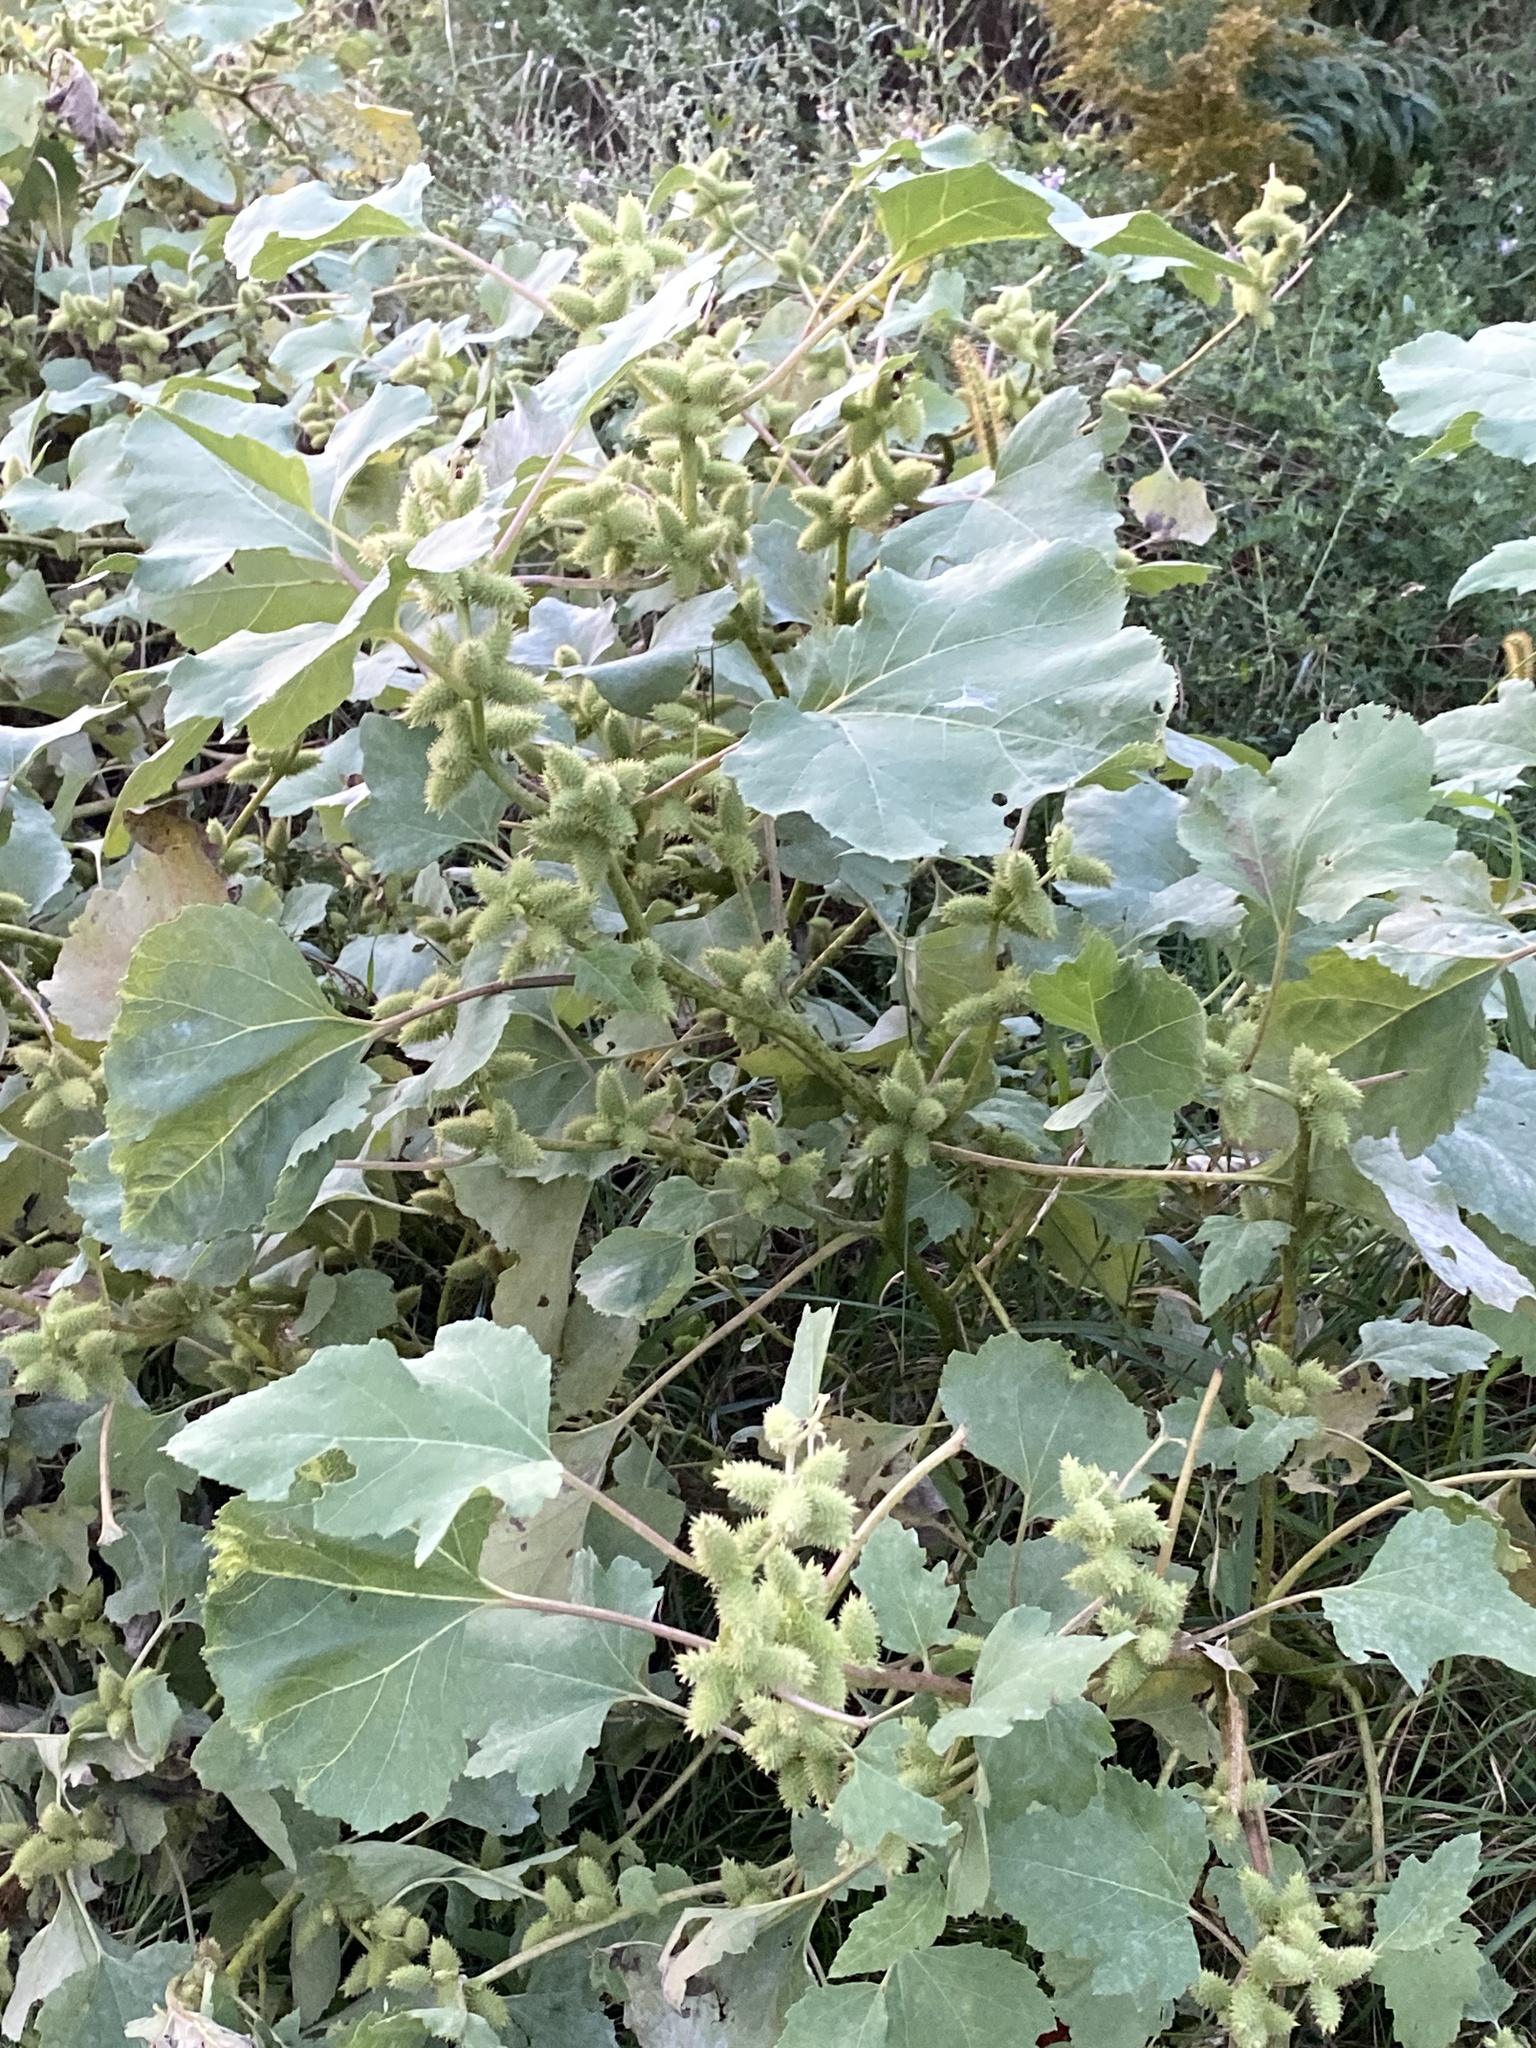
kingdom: Plantae
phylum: Tracheophyta
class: Magnoliopsida
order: Asterales
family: Asteraceae
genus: Xanthium
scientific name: Xanthium strumarium
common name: Rough cocklebur
